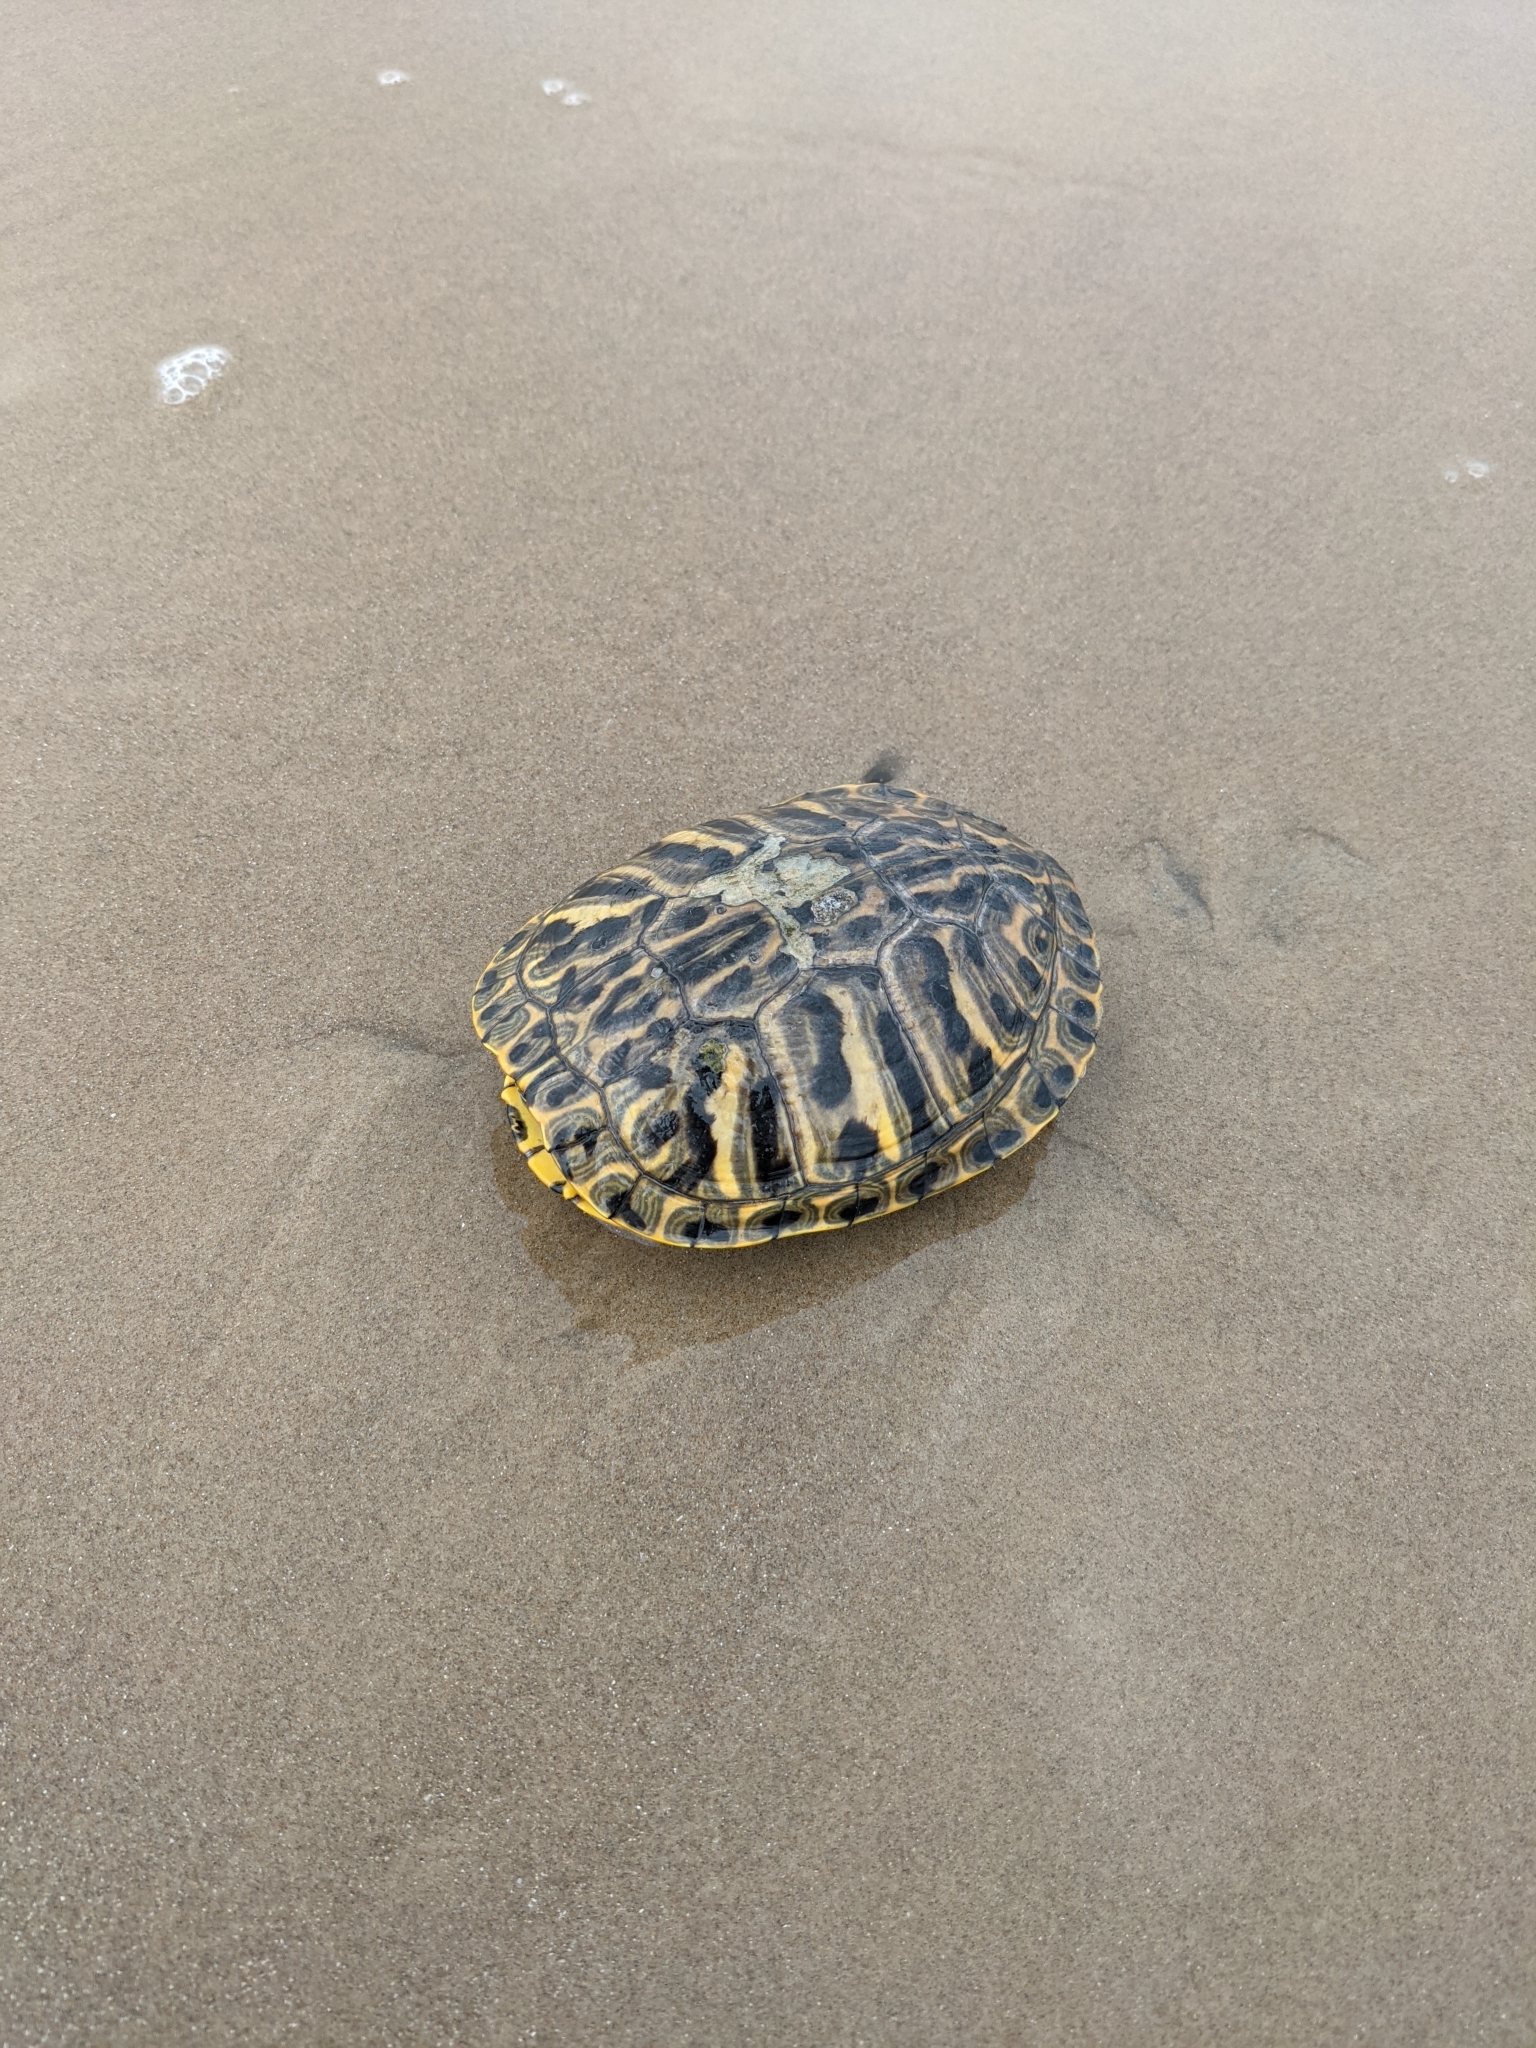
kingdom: Animalia
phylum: Chordata
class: Testudines
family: Emydidae
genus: Trachemys
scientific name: Trachemys scripta
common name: Slider
